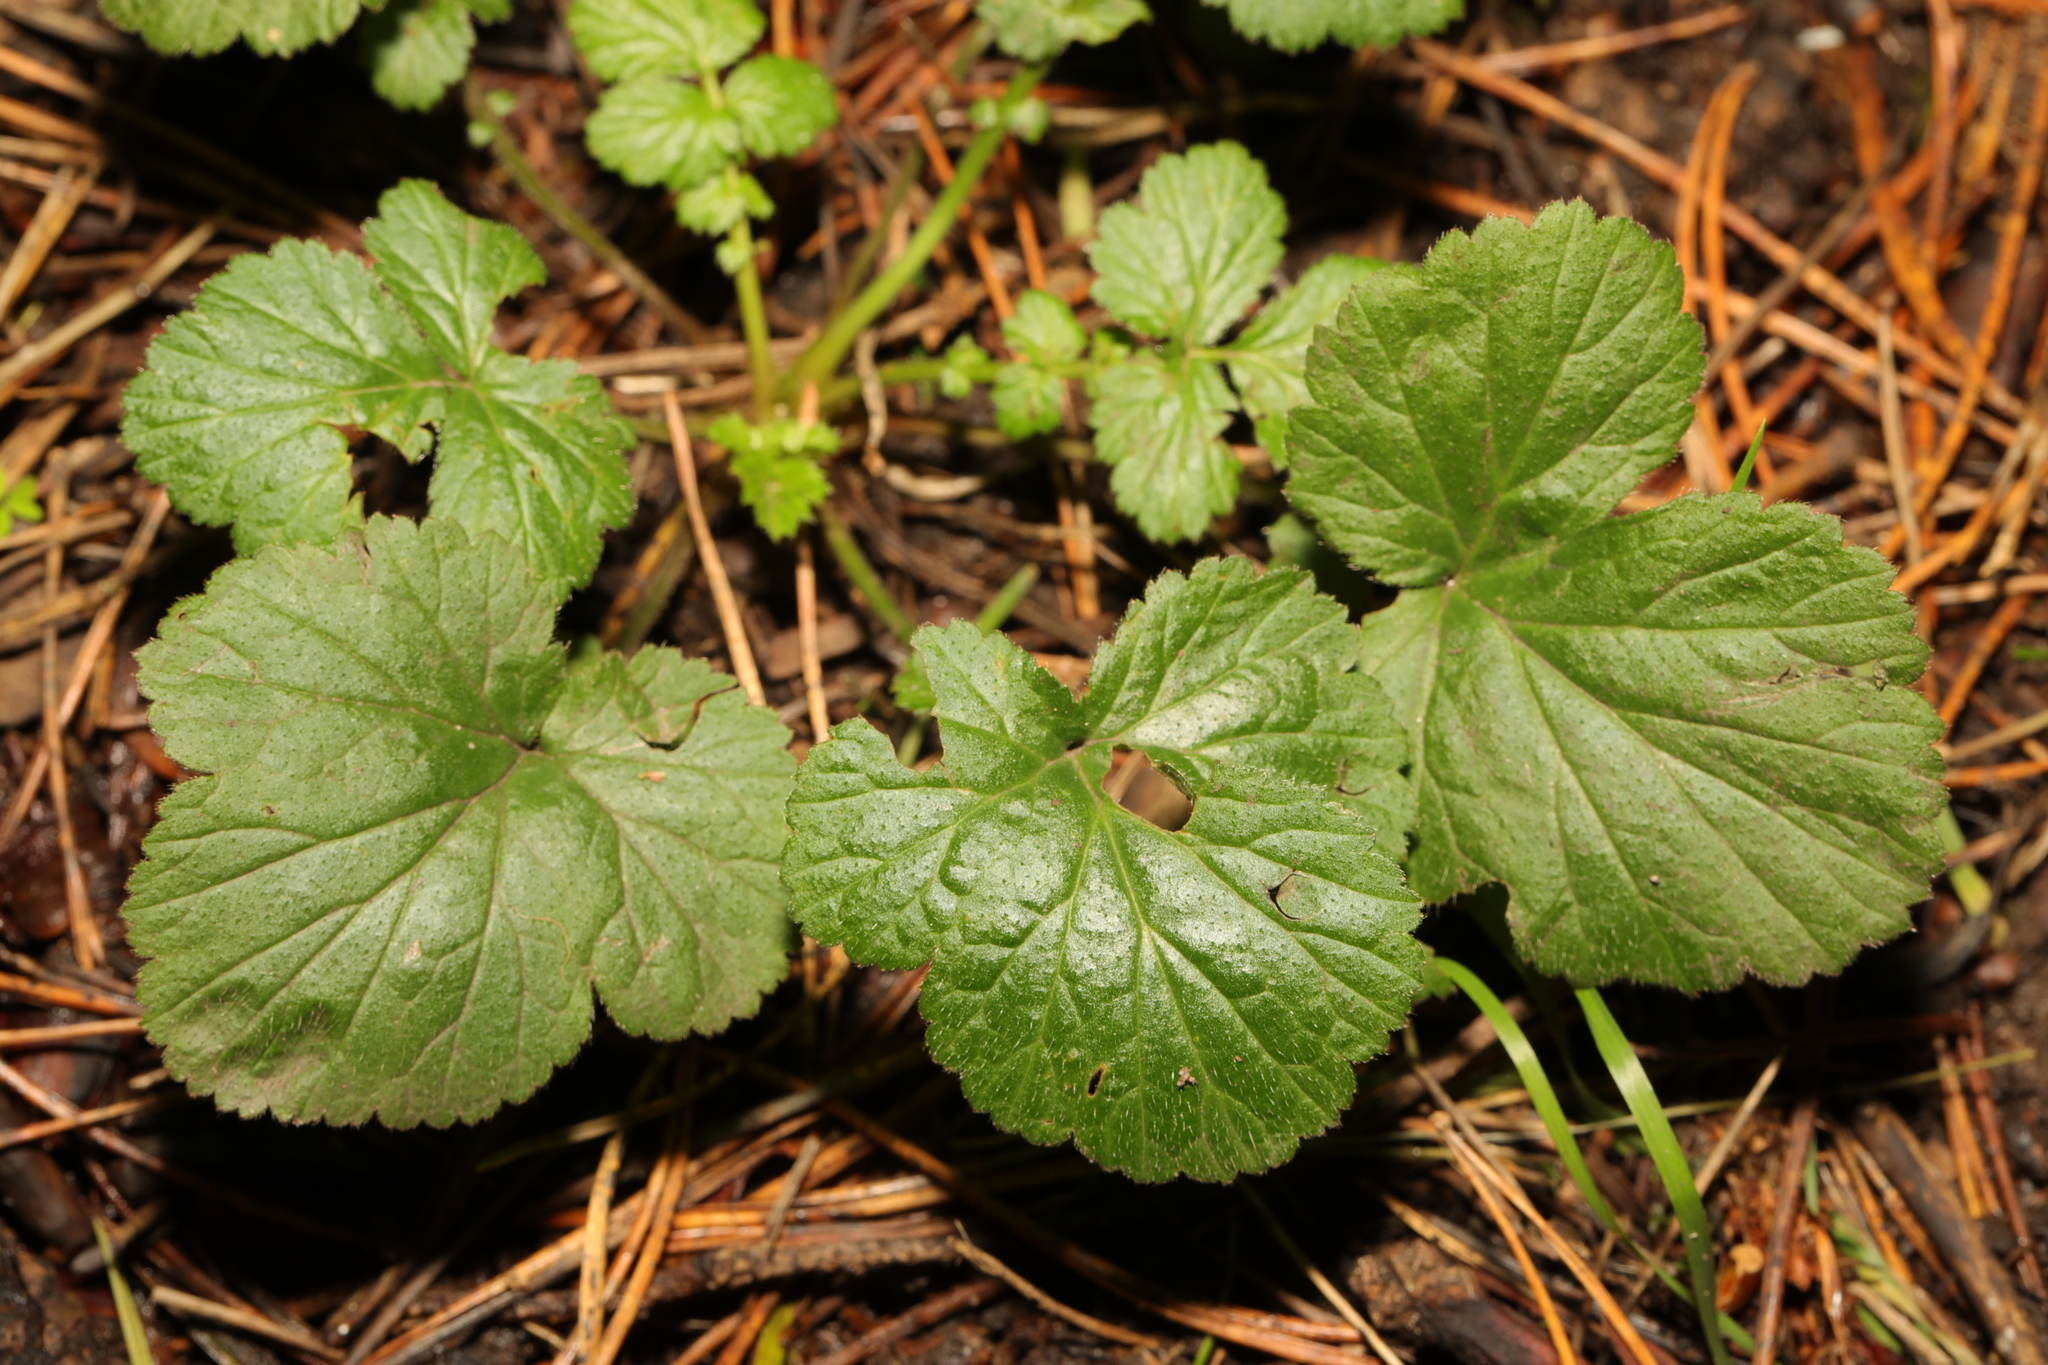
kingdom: Plantae
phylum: Tracheophyta
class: Magnoliopsida
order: Rosales
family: Rosaceae
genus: Geum
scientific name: Geum urbanum
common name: Wood avens
